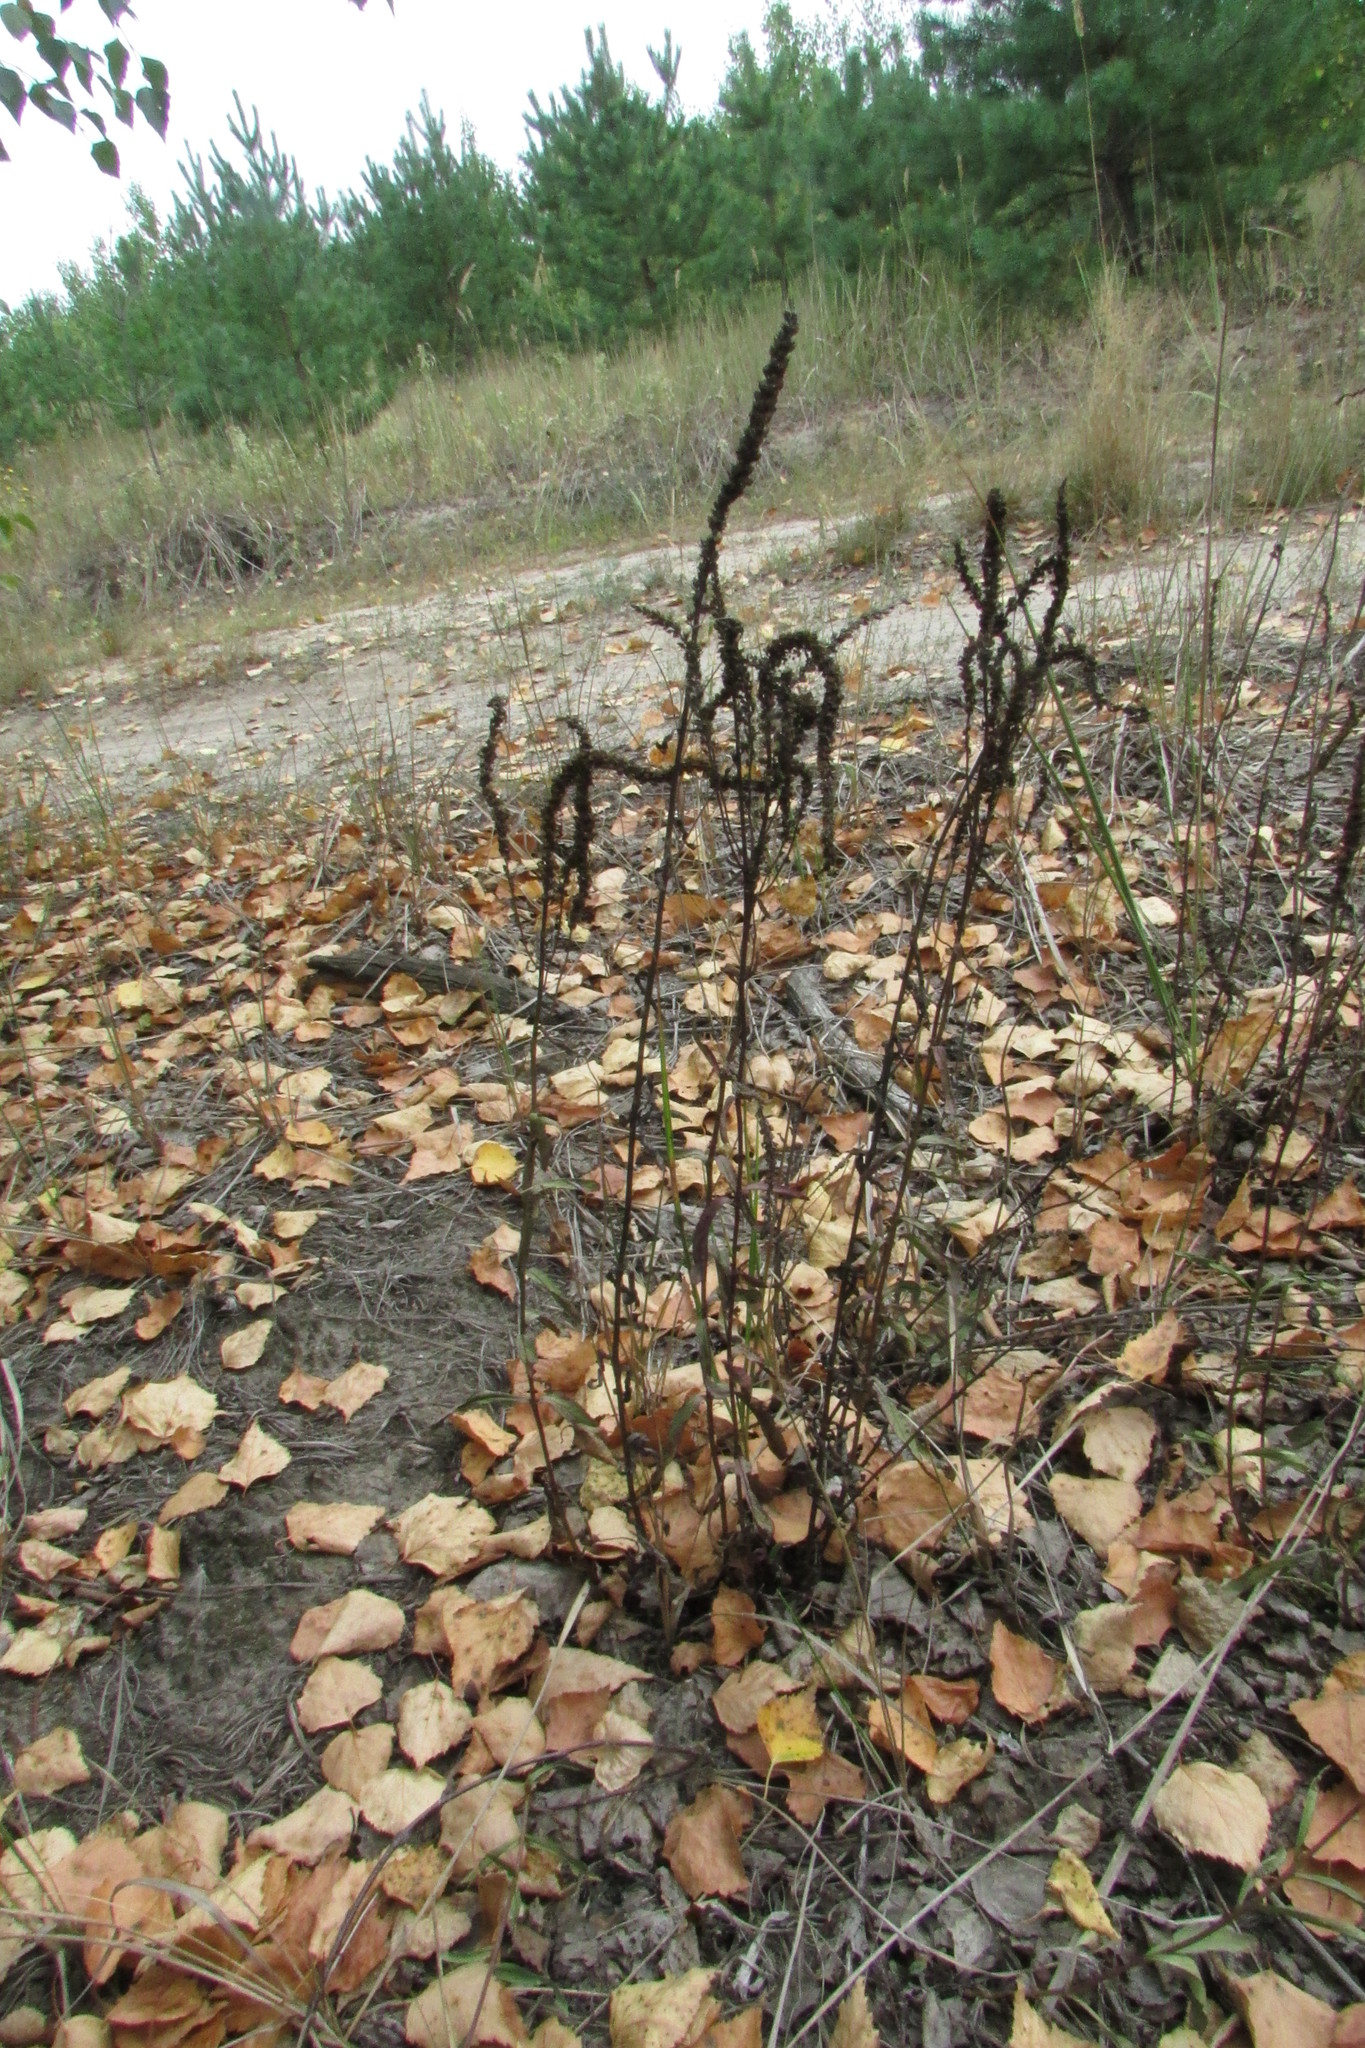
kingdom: Plantae
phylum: Tracheophyta
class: Magnoliopsida
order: Lamiales
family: Plantaginaceae
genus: Veronica
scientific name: Veronica spicata
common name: Spiked speedwell
